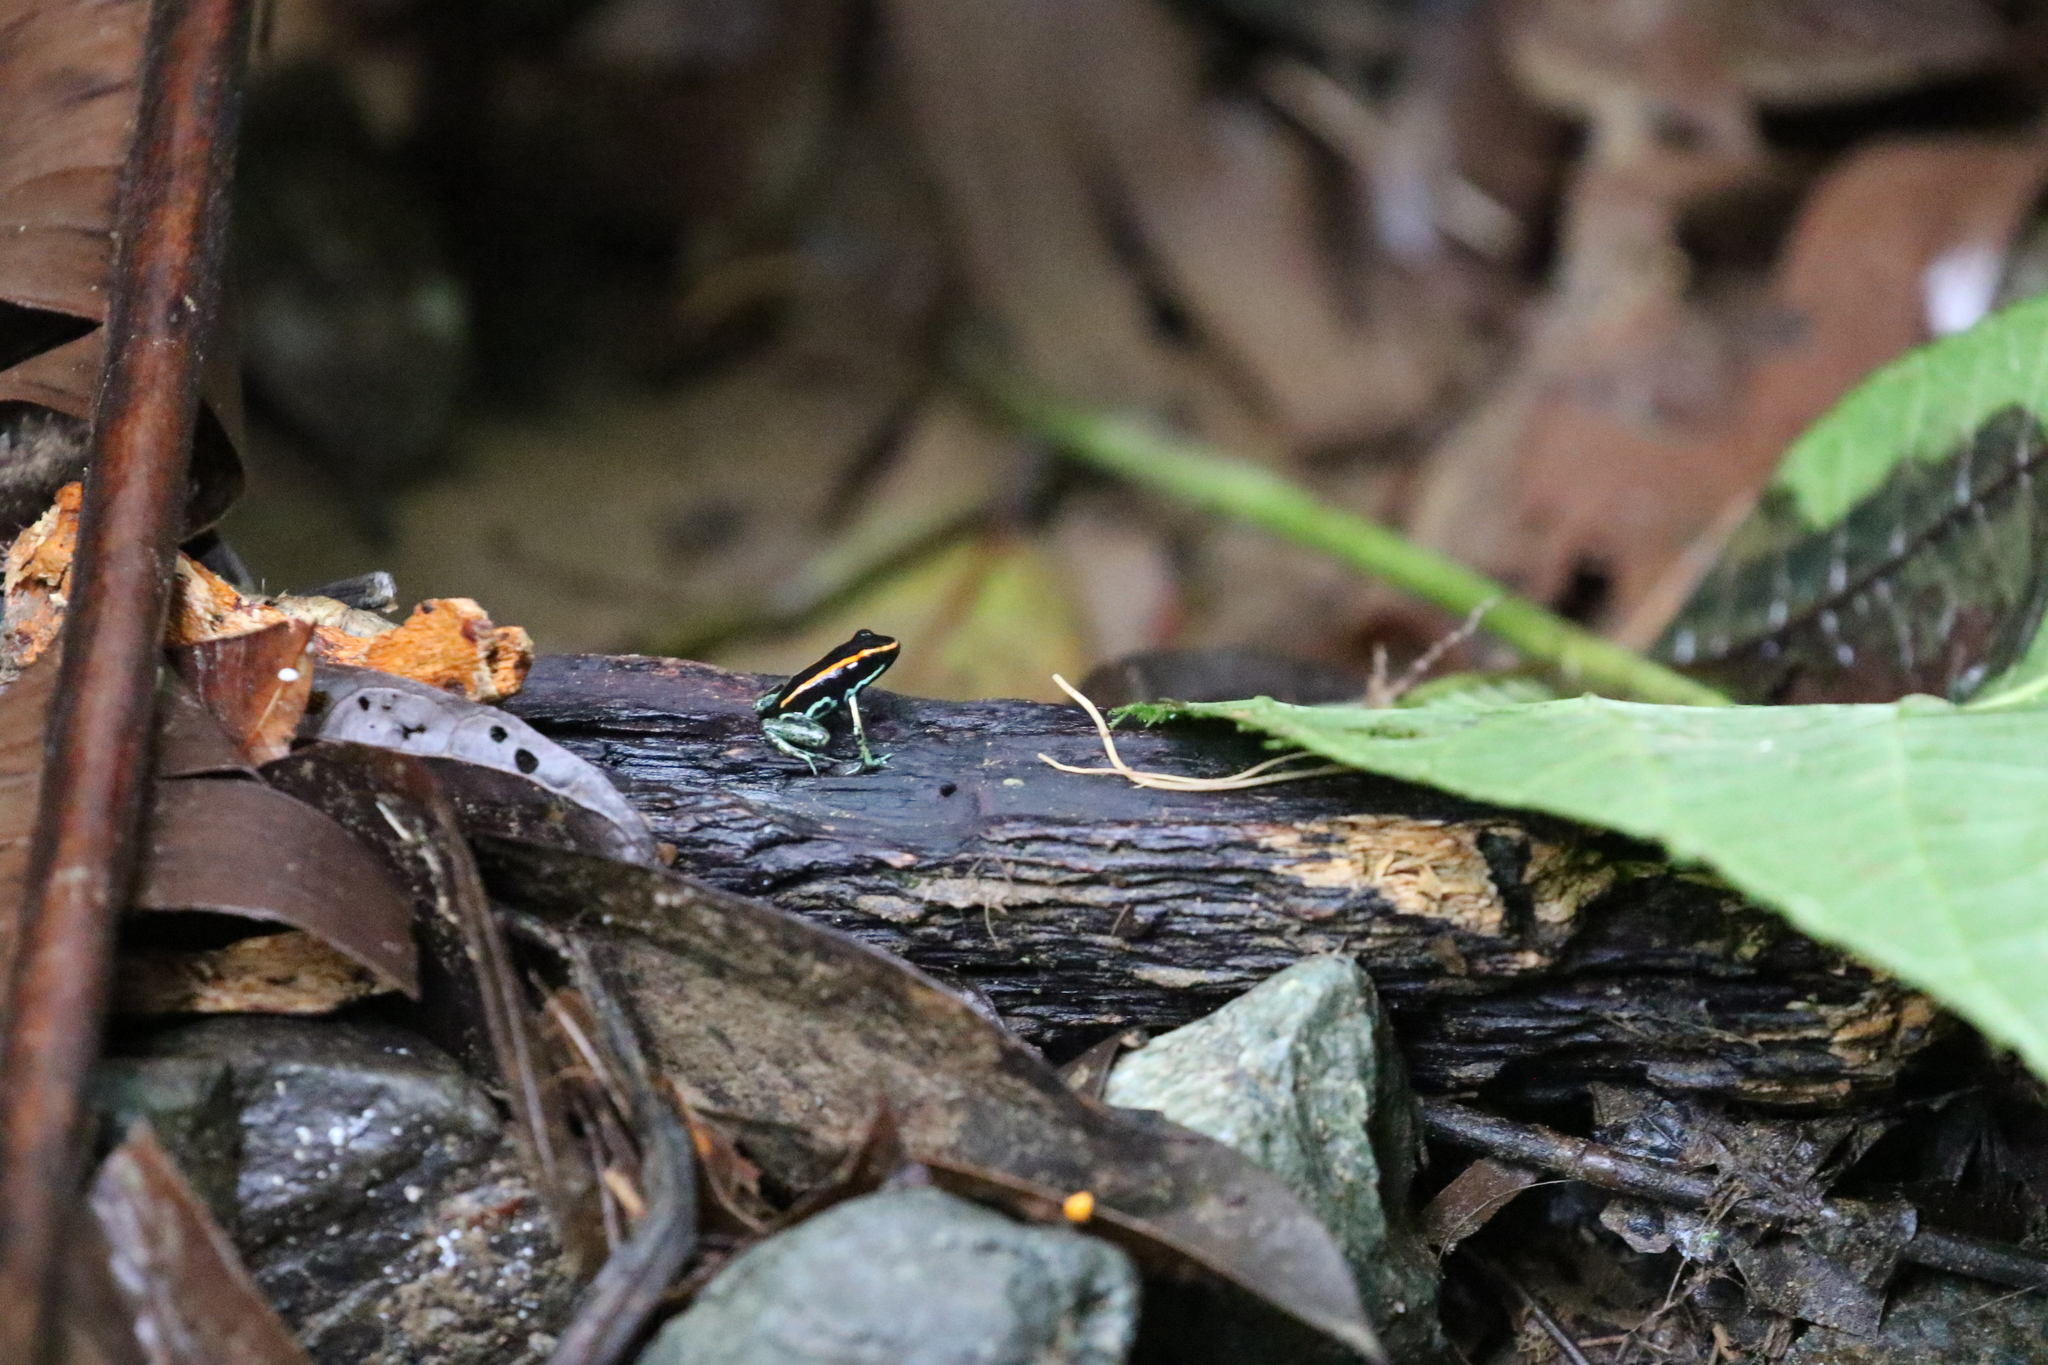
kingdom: Animalia
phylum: Chordata
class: Amphibia
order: Anura
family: Dendrobatidae
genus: Phyllobates
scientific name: Phyllobates vittatus
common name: Golfodulcean poison frog
